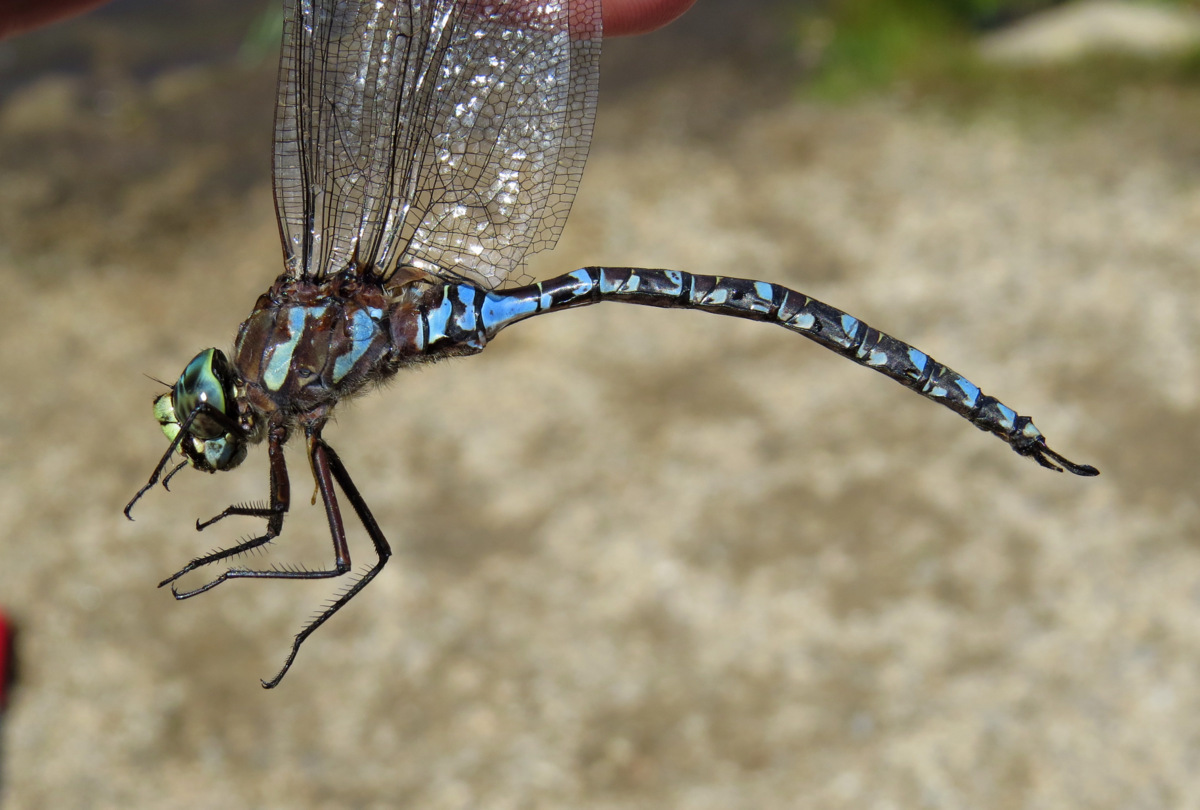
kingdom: Animalia
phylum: Arthropoda
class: Insecta
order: Odonata
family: Aeshnidae
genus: Aeshna
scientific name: Aeshna eremita
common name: Lake darner
